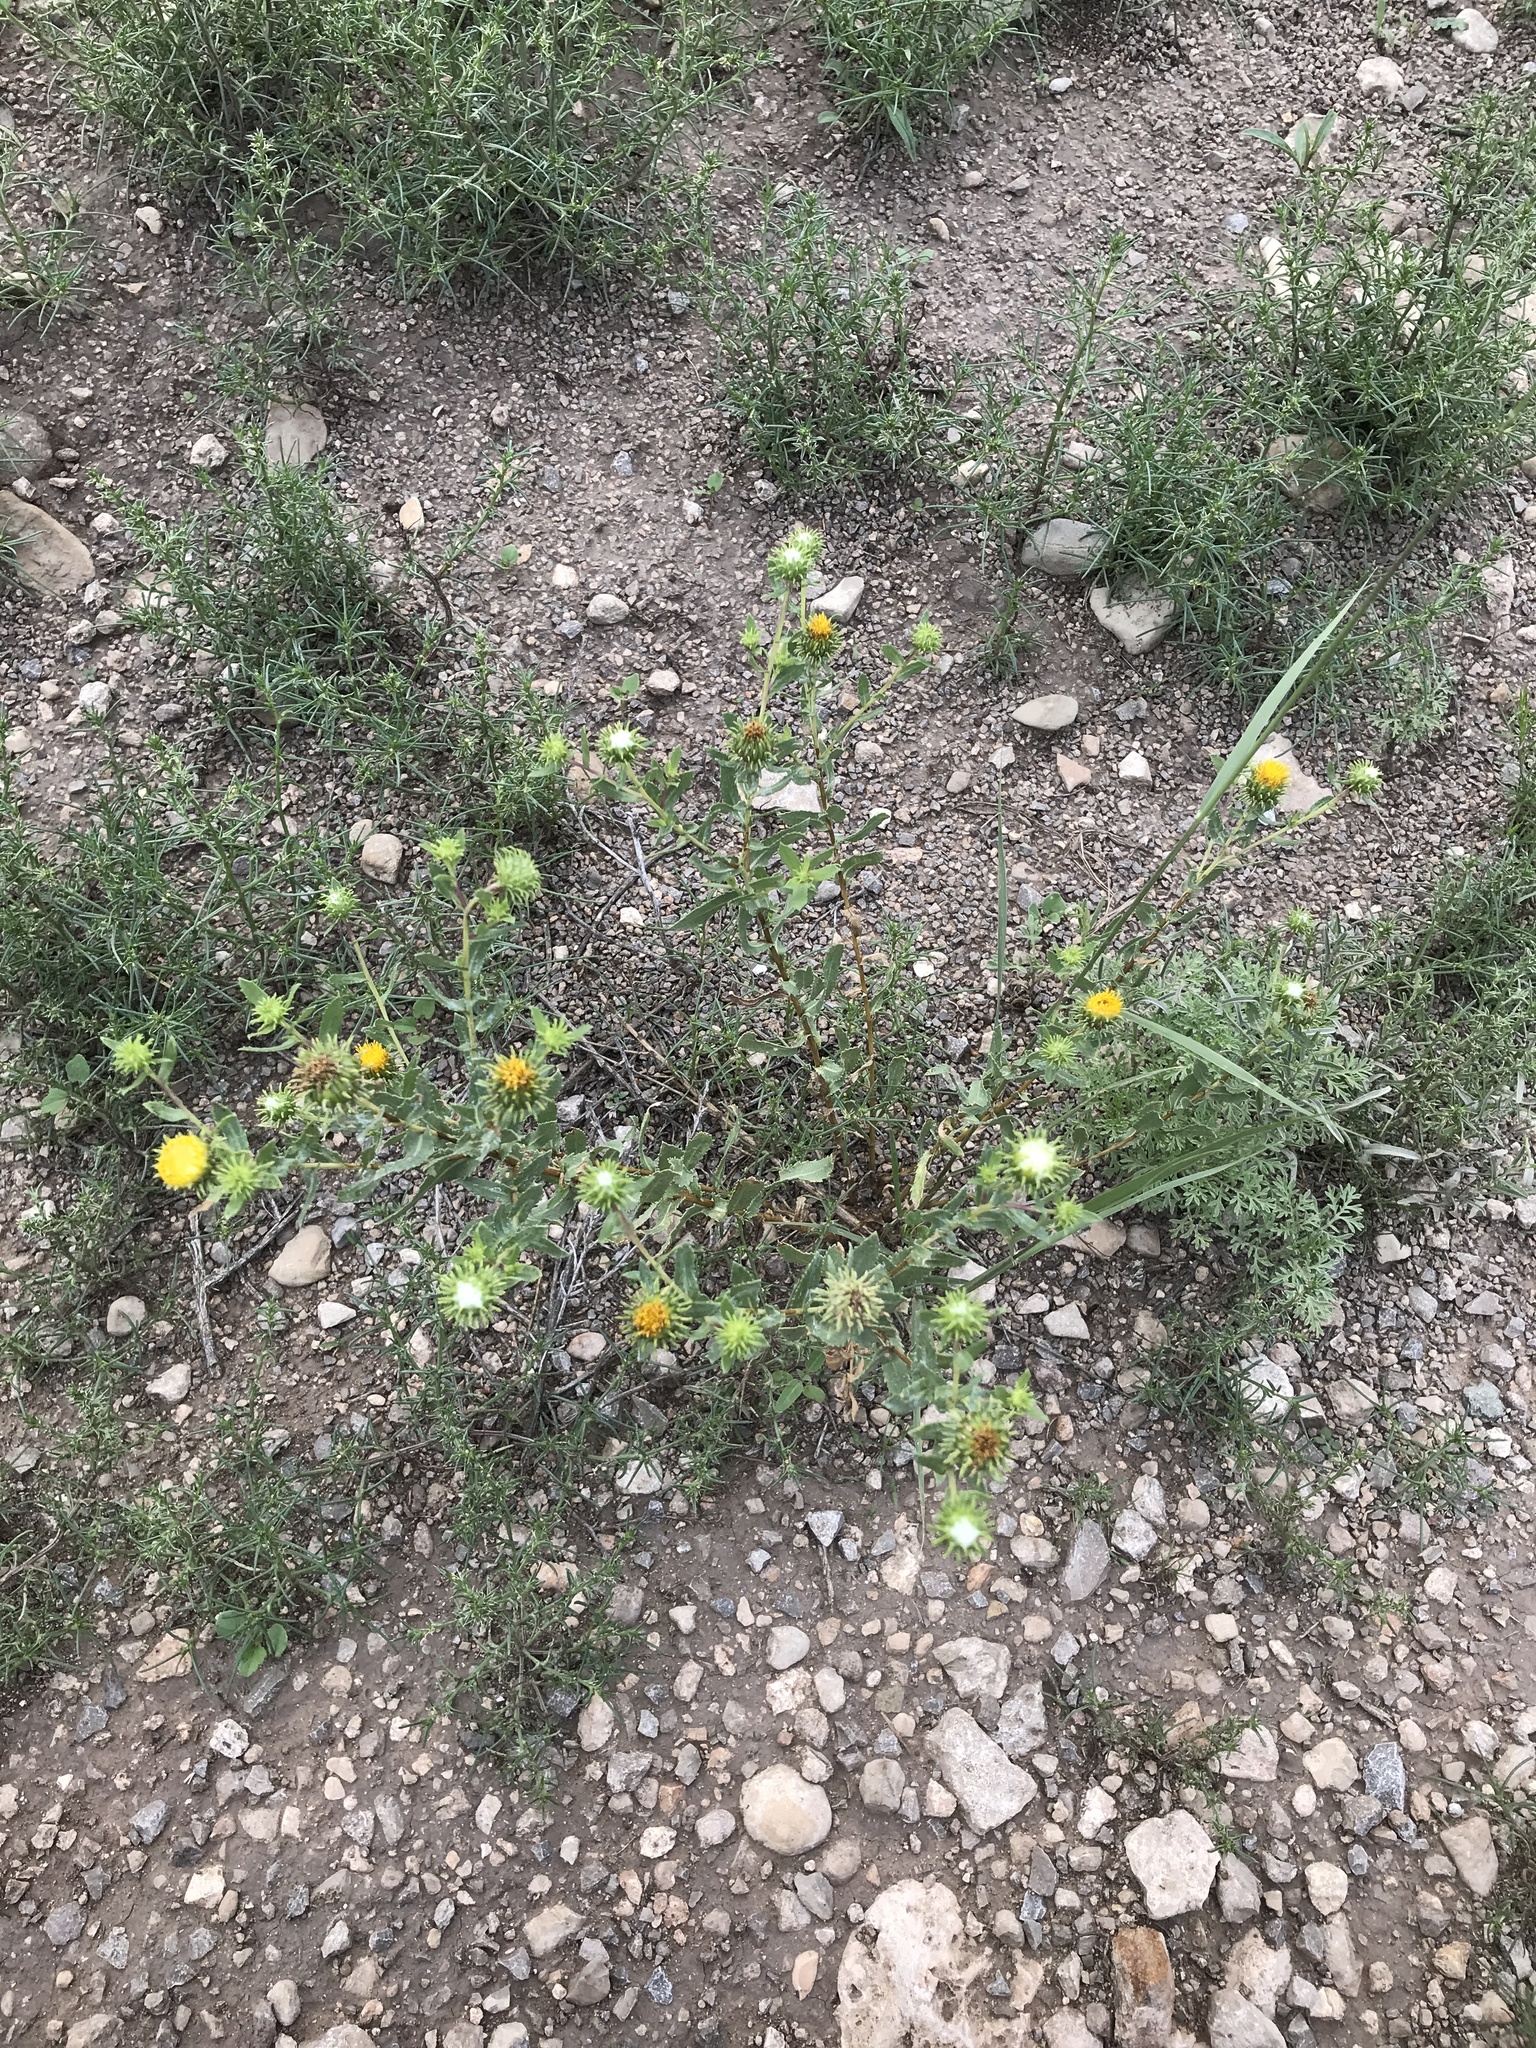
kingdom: Plantae
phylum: Tracheophyta
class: Magnoliopsida
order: Asterales
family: Asteraceae
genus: Grindelia
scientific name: Grindelia nuda
